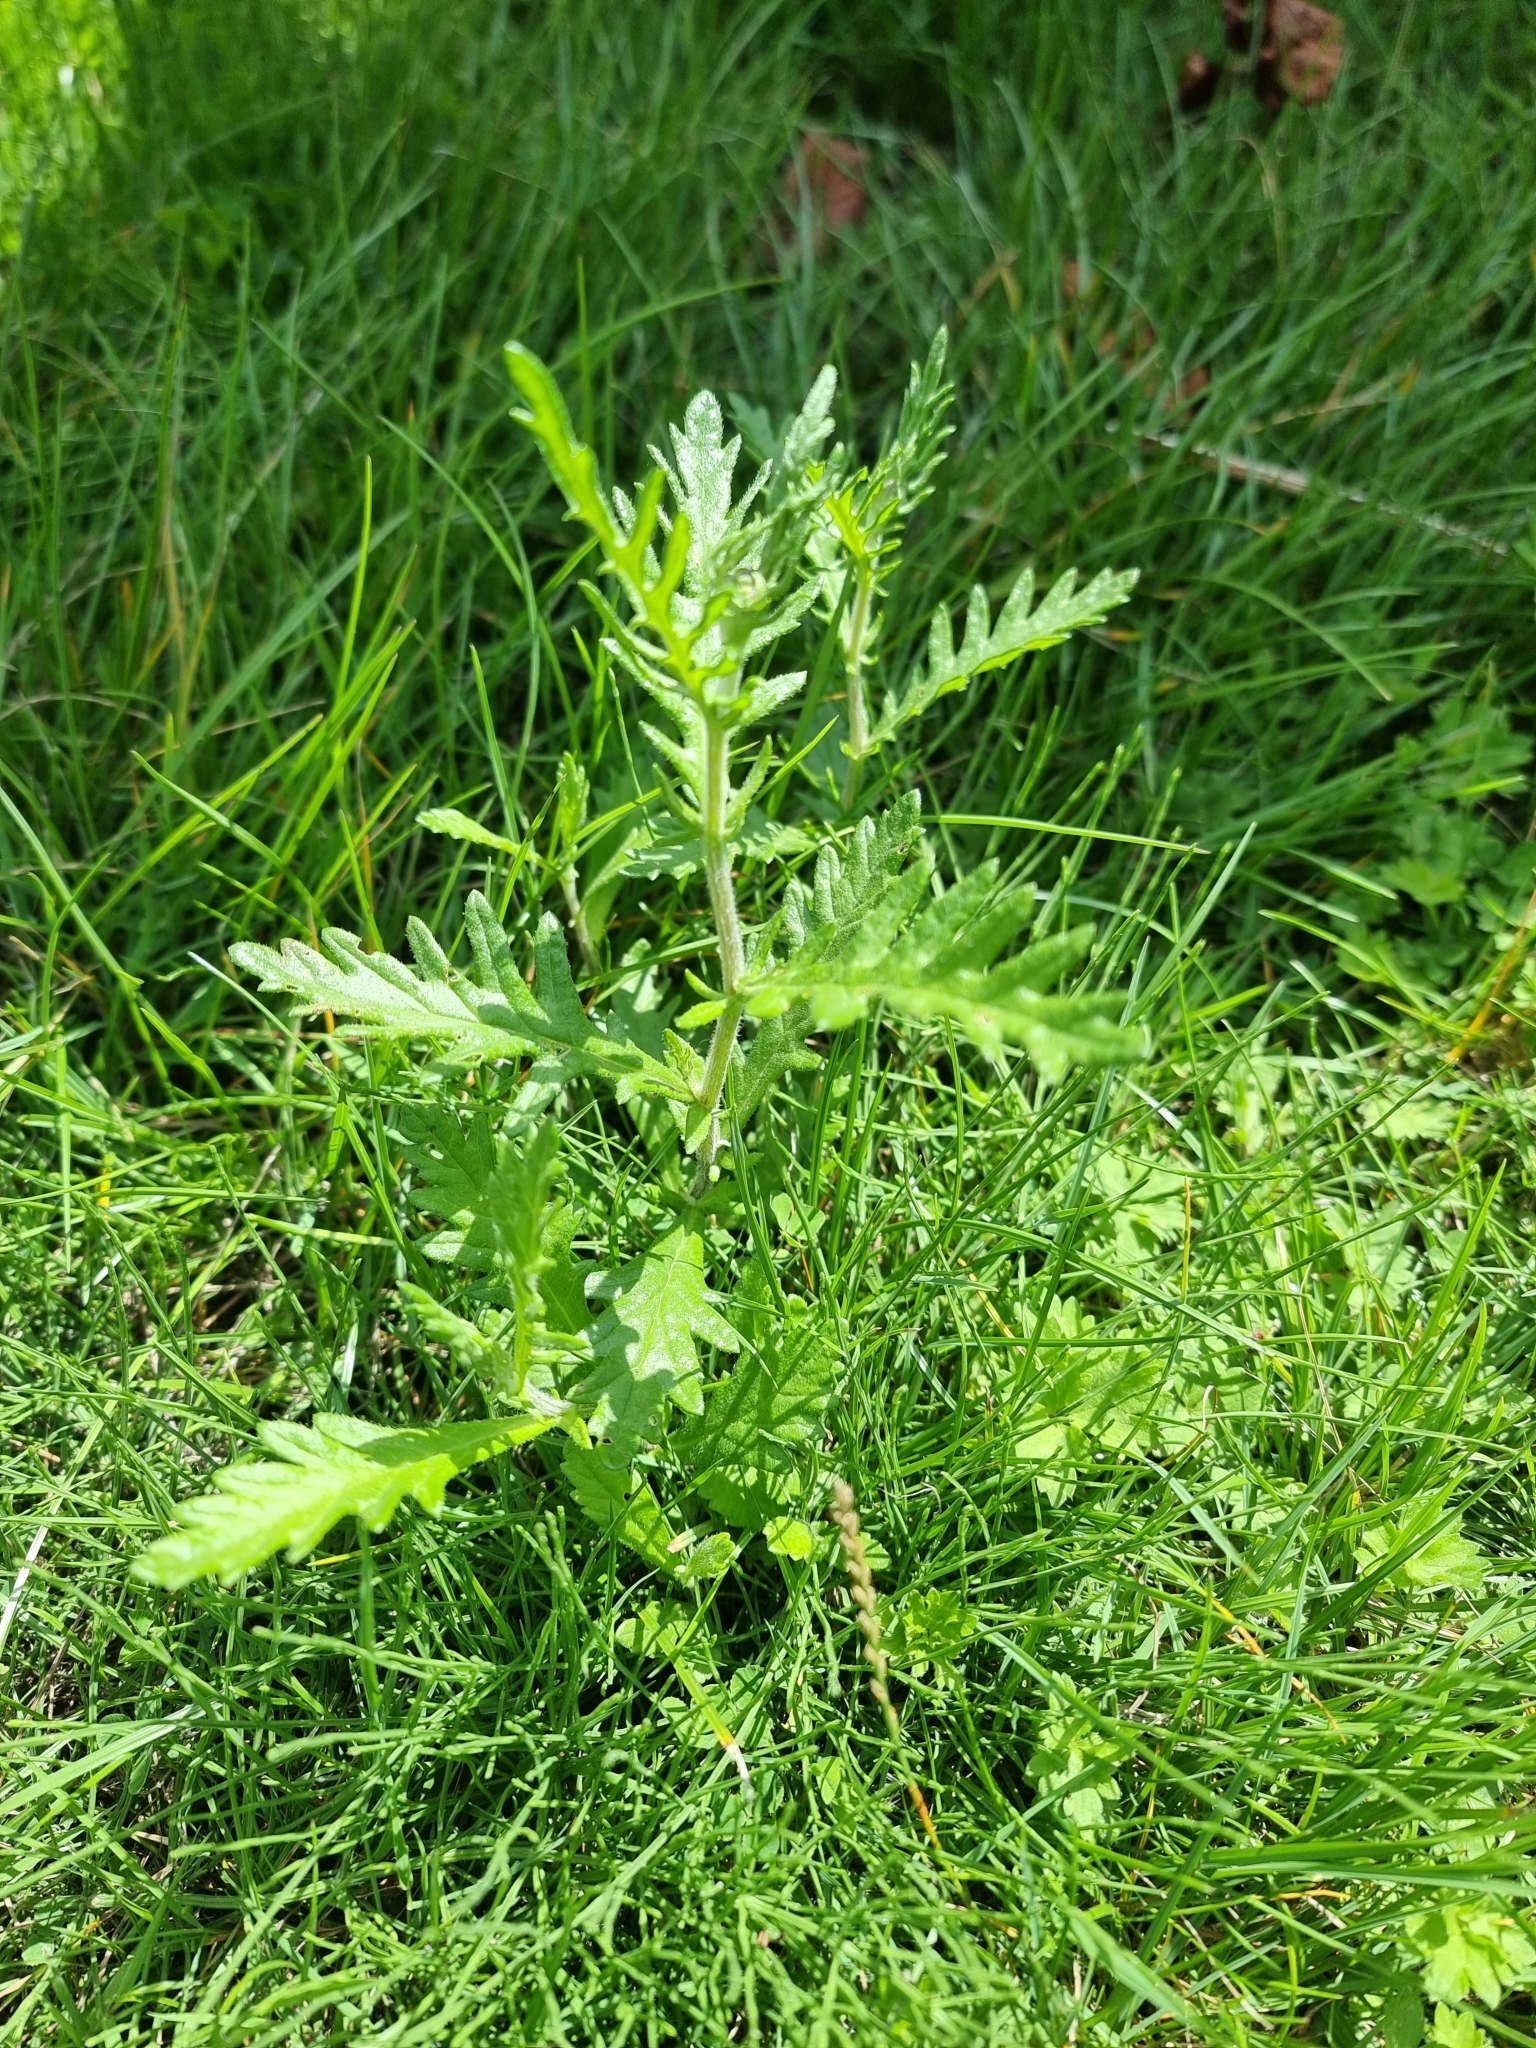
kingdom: Plantae
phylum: Tracheophyta
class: Magnoliopsida
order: Asterales
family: Asteraceae
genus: Jacobaea
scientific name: Jacobaea erucifolia
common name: Hoary ragwort
